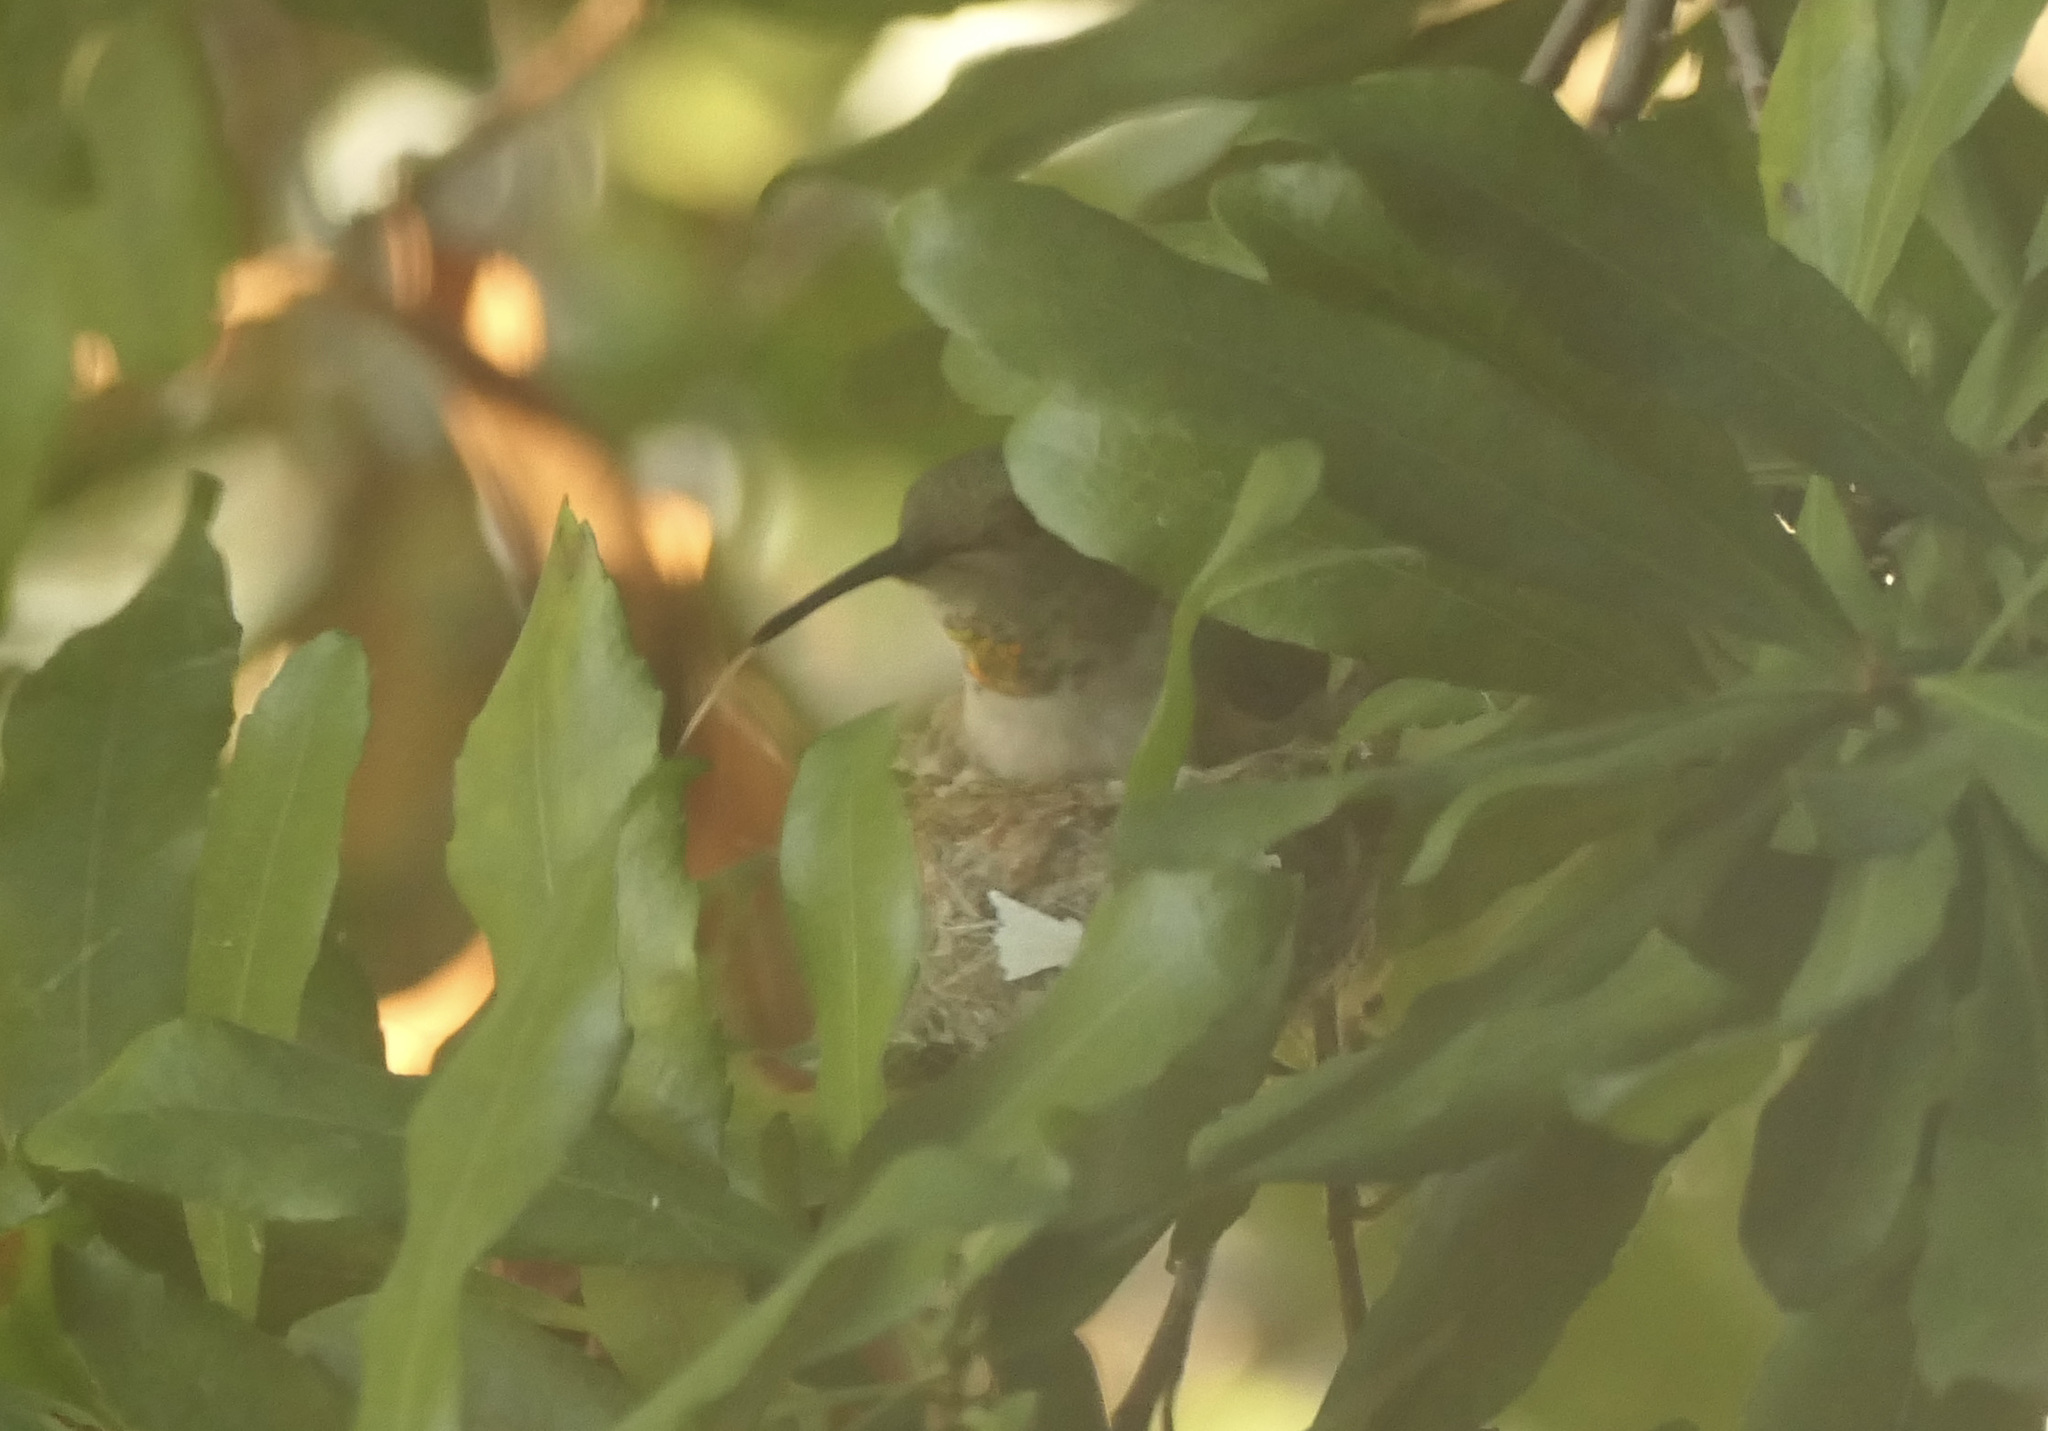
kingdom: Animalia
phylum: Chordata
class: Aves
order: Apodiformes
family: Trochilidae
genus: Selasphorus
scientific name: Selasphorus sasin
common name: Allen's hummingbird
